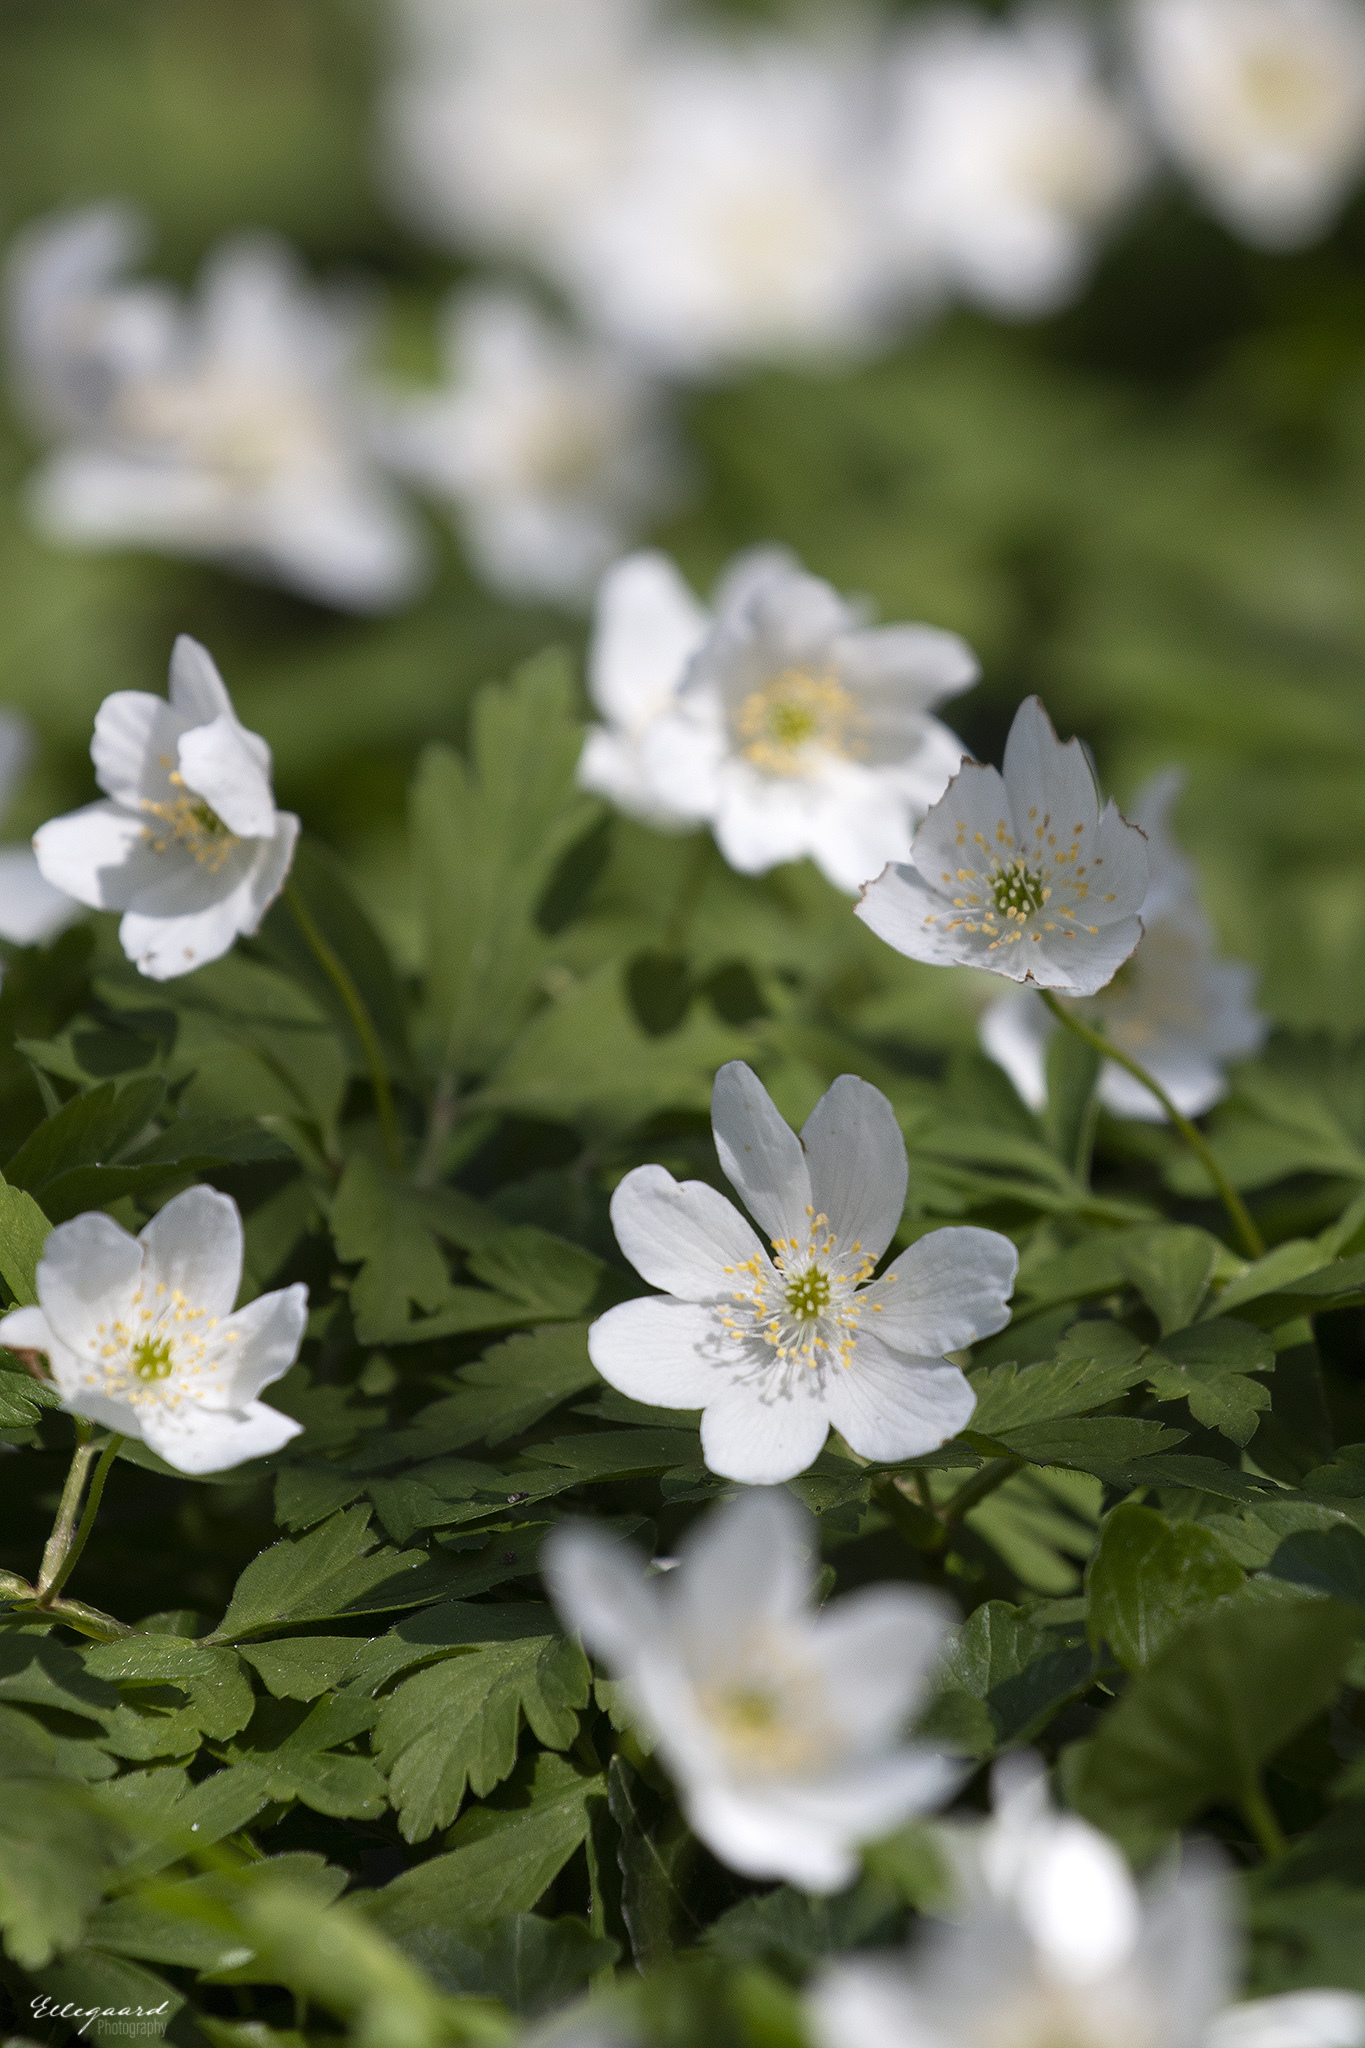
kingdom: Plantae
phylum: Tracheophyta
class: Magnoliopsida
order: Ranunculales
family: Ranunculaceae
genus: Anemone
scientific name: Anemone nemorosa
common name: Wood anemone
